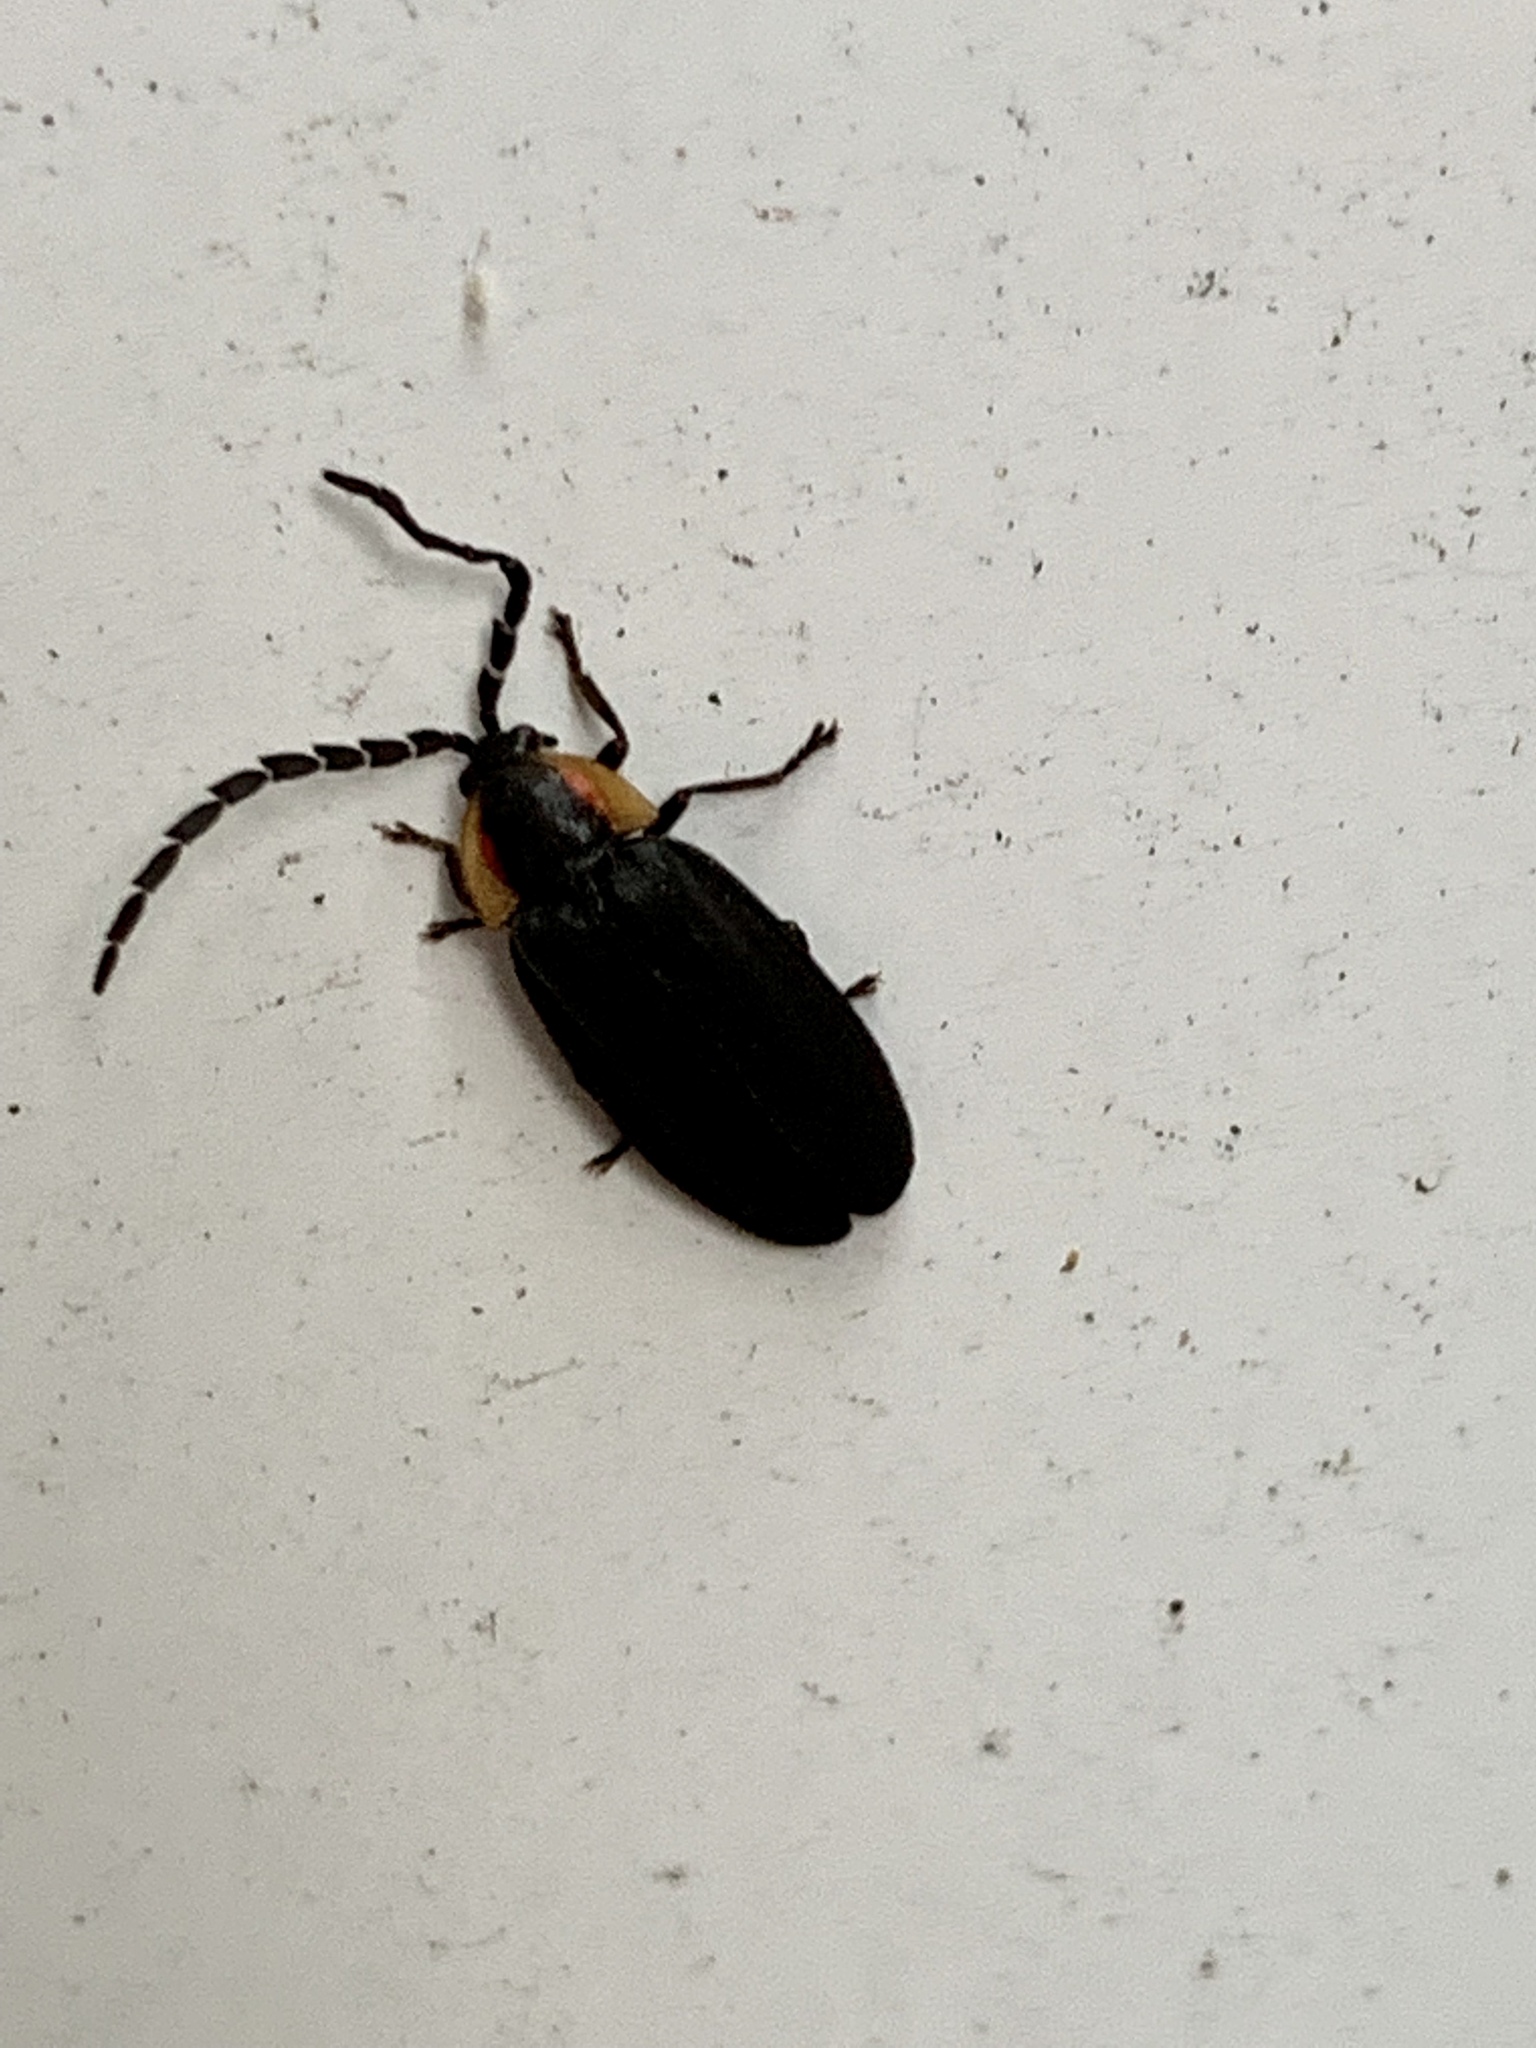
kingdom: Animalia
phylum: Arthropoda
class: Insecta
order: Coleoptera
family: Lampyridae
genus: Lucidota
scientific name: Lucidota atra
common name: Black firefly
